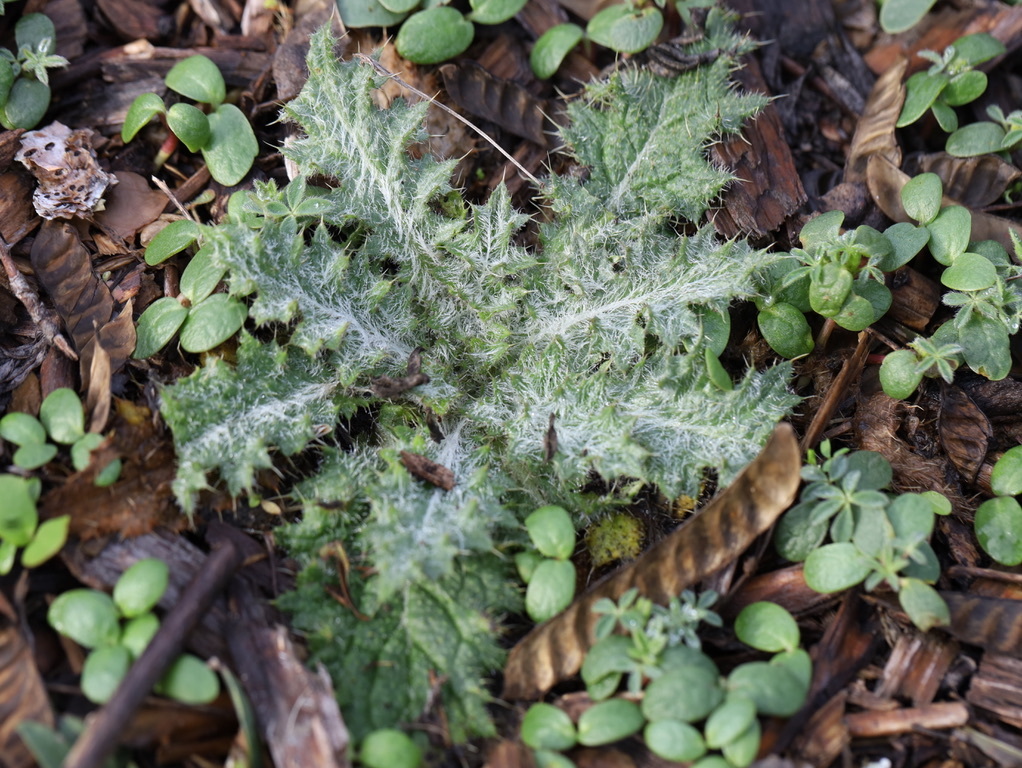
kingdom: Plantae
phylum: Tracheophyta
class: Magnoliopsida
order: Asterales
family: Asteraceae
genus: Cirsium
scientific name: Cirsium vulgare
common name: Bull thistle
